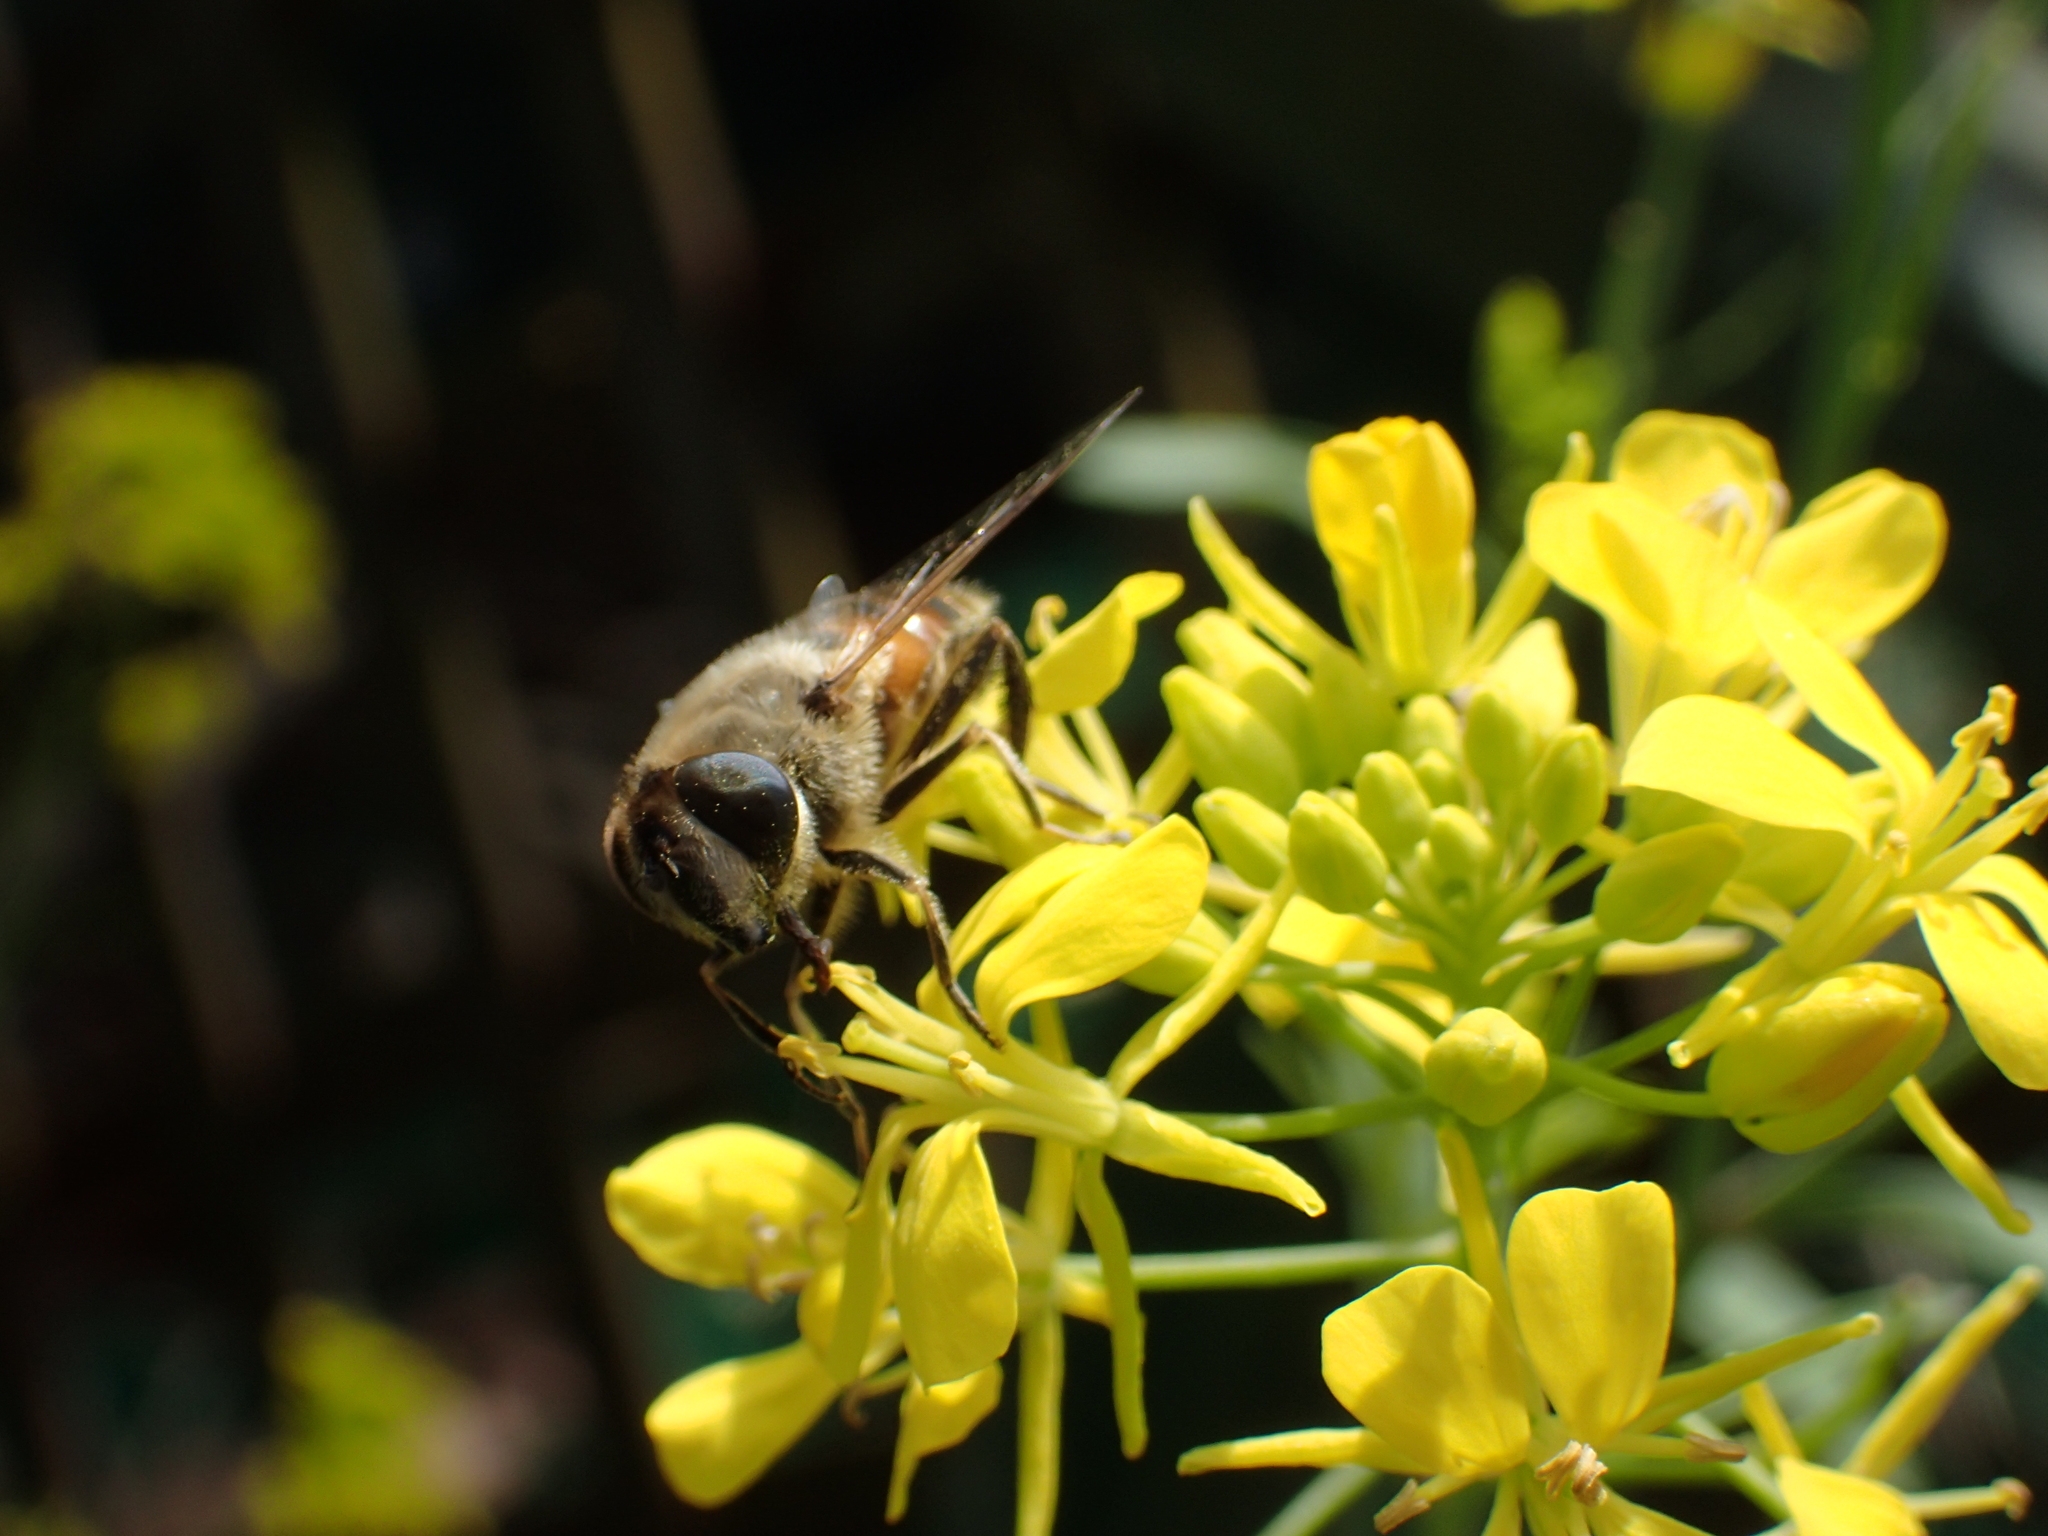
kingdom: Animalia
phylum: Arthropoda
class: Insecta
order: Diptera
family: Syrphidae
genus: Eristalis
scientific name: Eristalis tenax
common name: Drone fly
